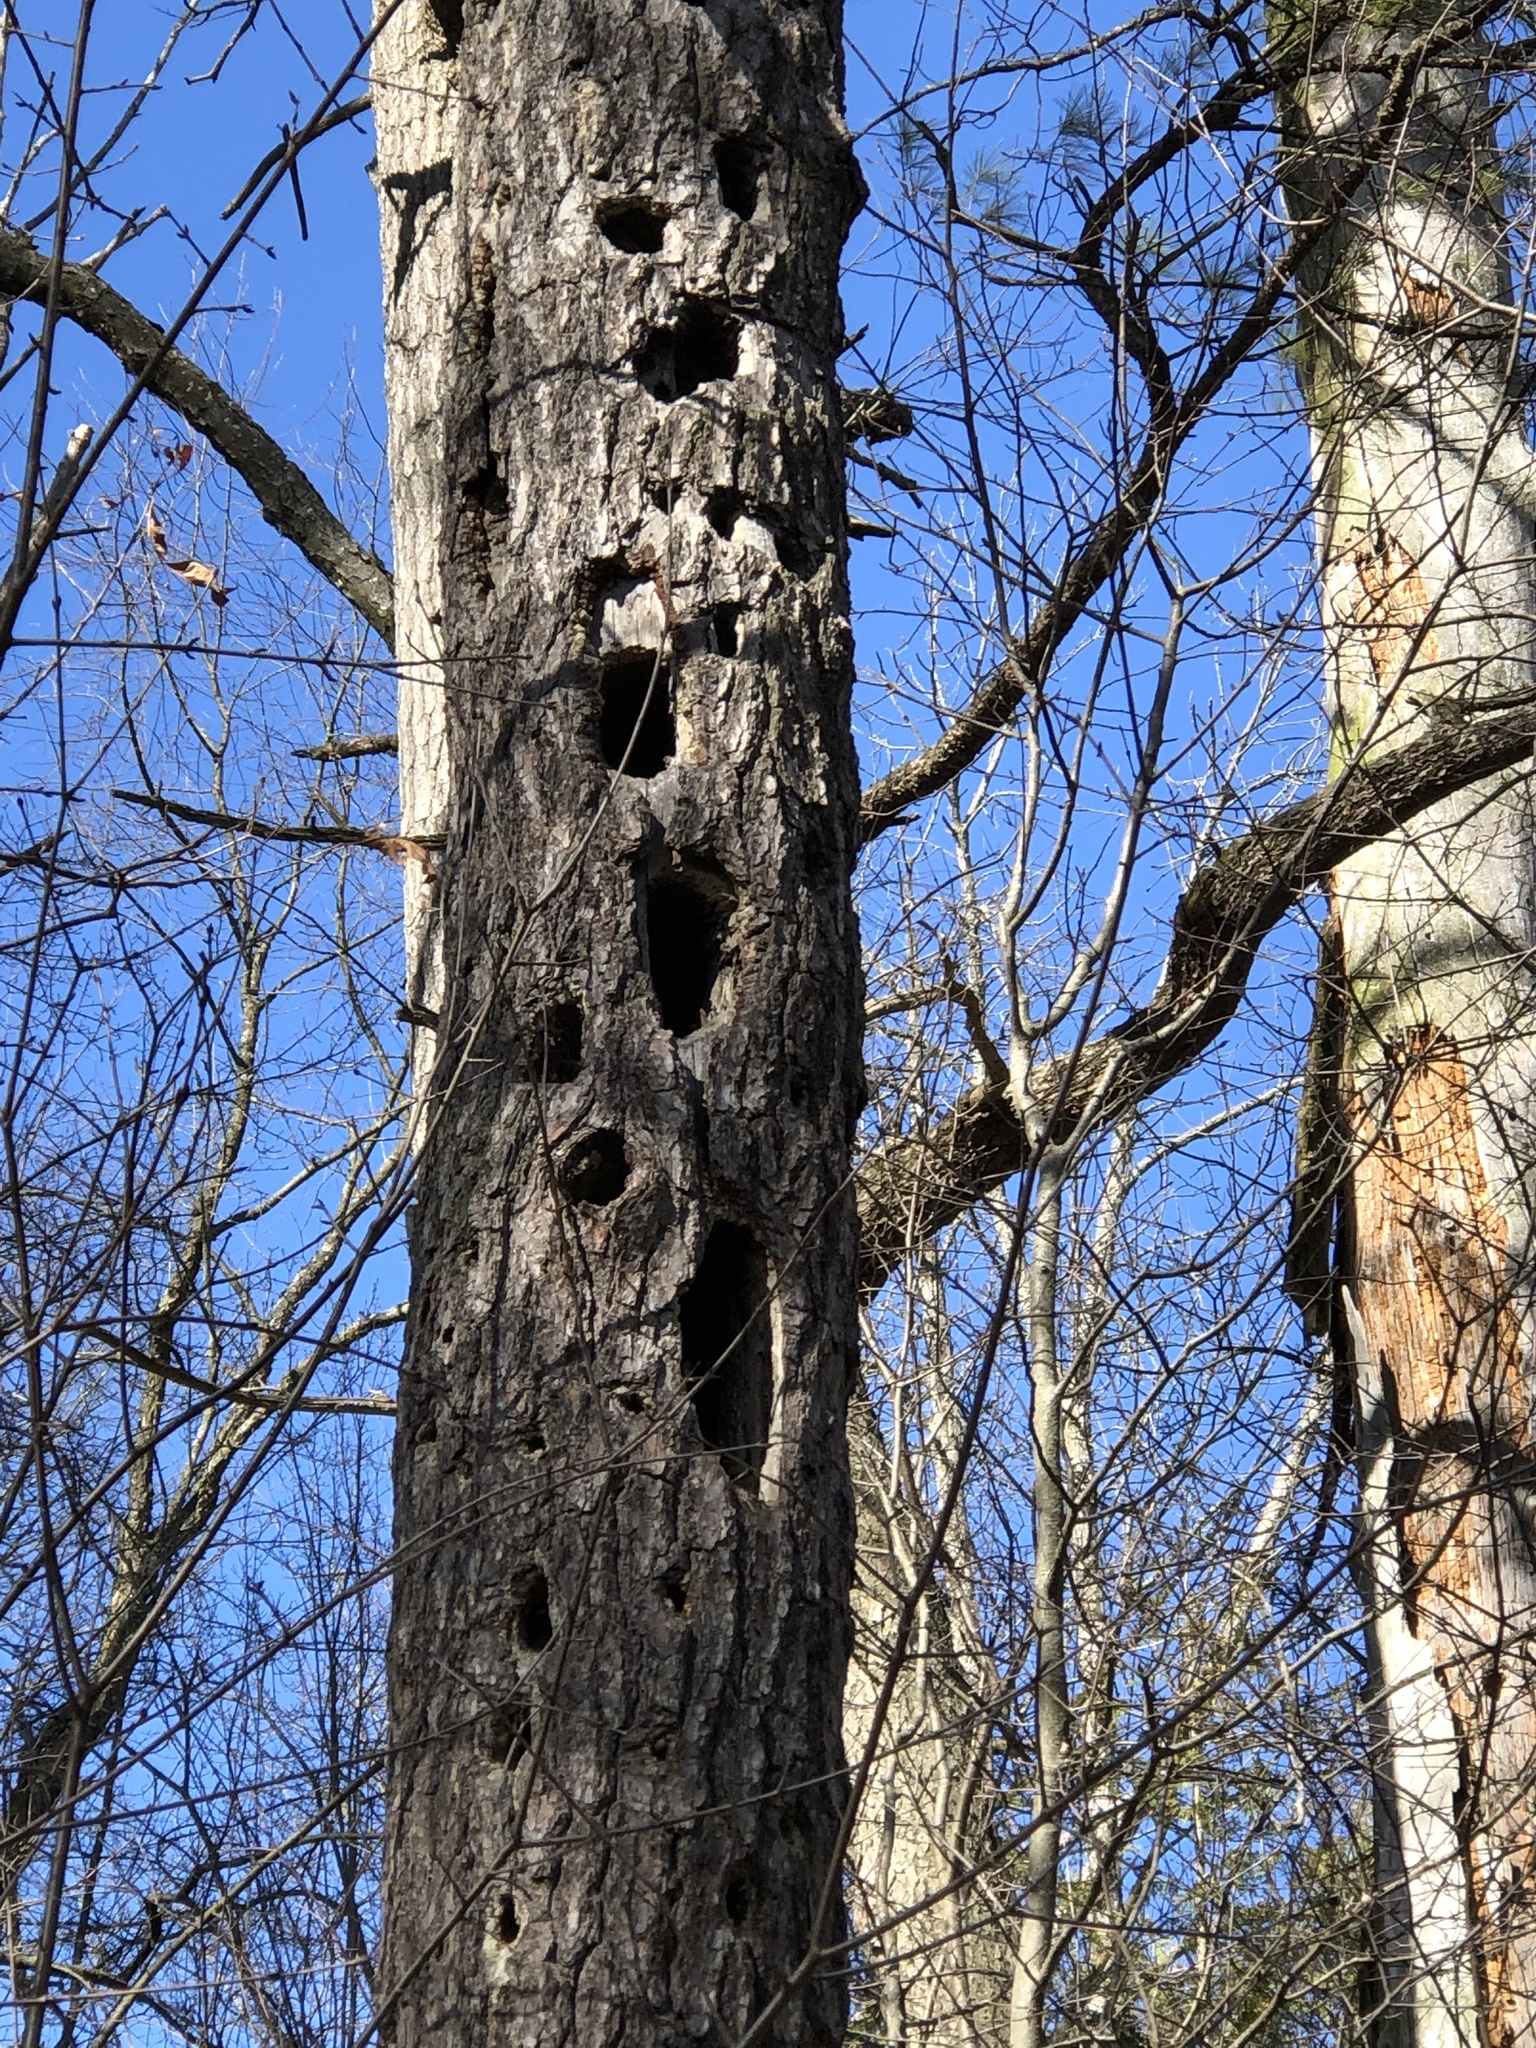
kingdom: Animalia
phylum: Chordata
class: Aves
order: Piciformes
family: Picidae
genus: Dryocopus
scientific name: Dryocopus pileatus
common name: Pileated woodpecker
